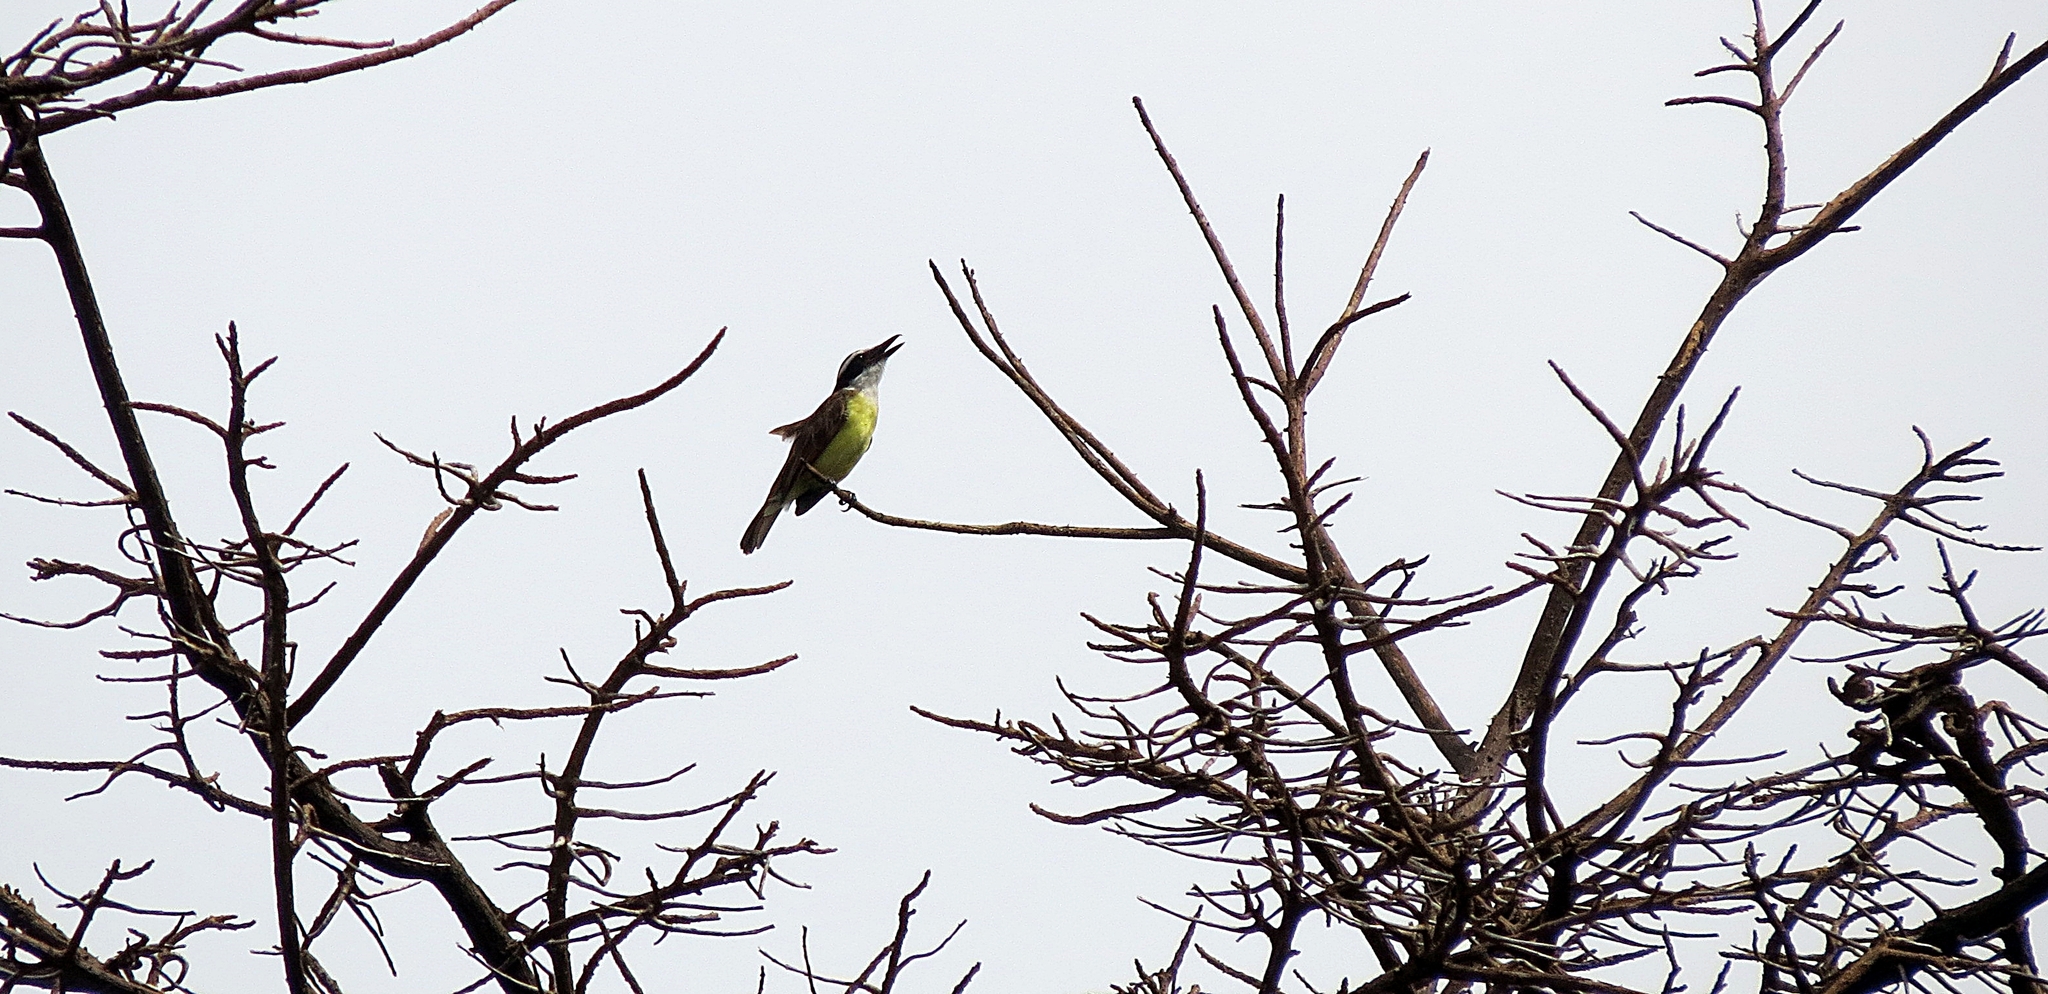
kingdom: Animalia
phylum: Chordata
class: Aves
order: Passeriformes
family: Tyrannidae
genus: Pitangus
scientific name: Pitangus sulphuratus
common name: Great kiskadee
